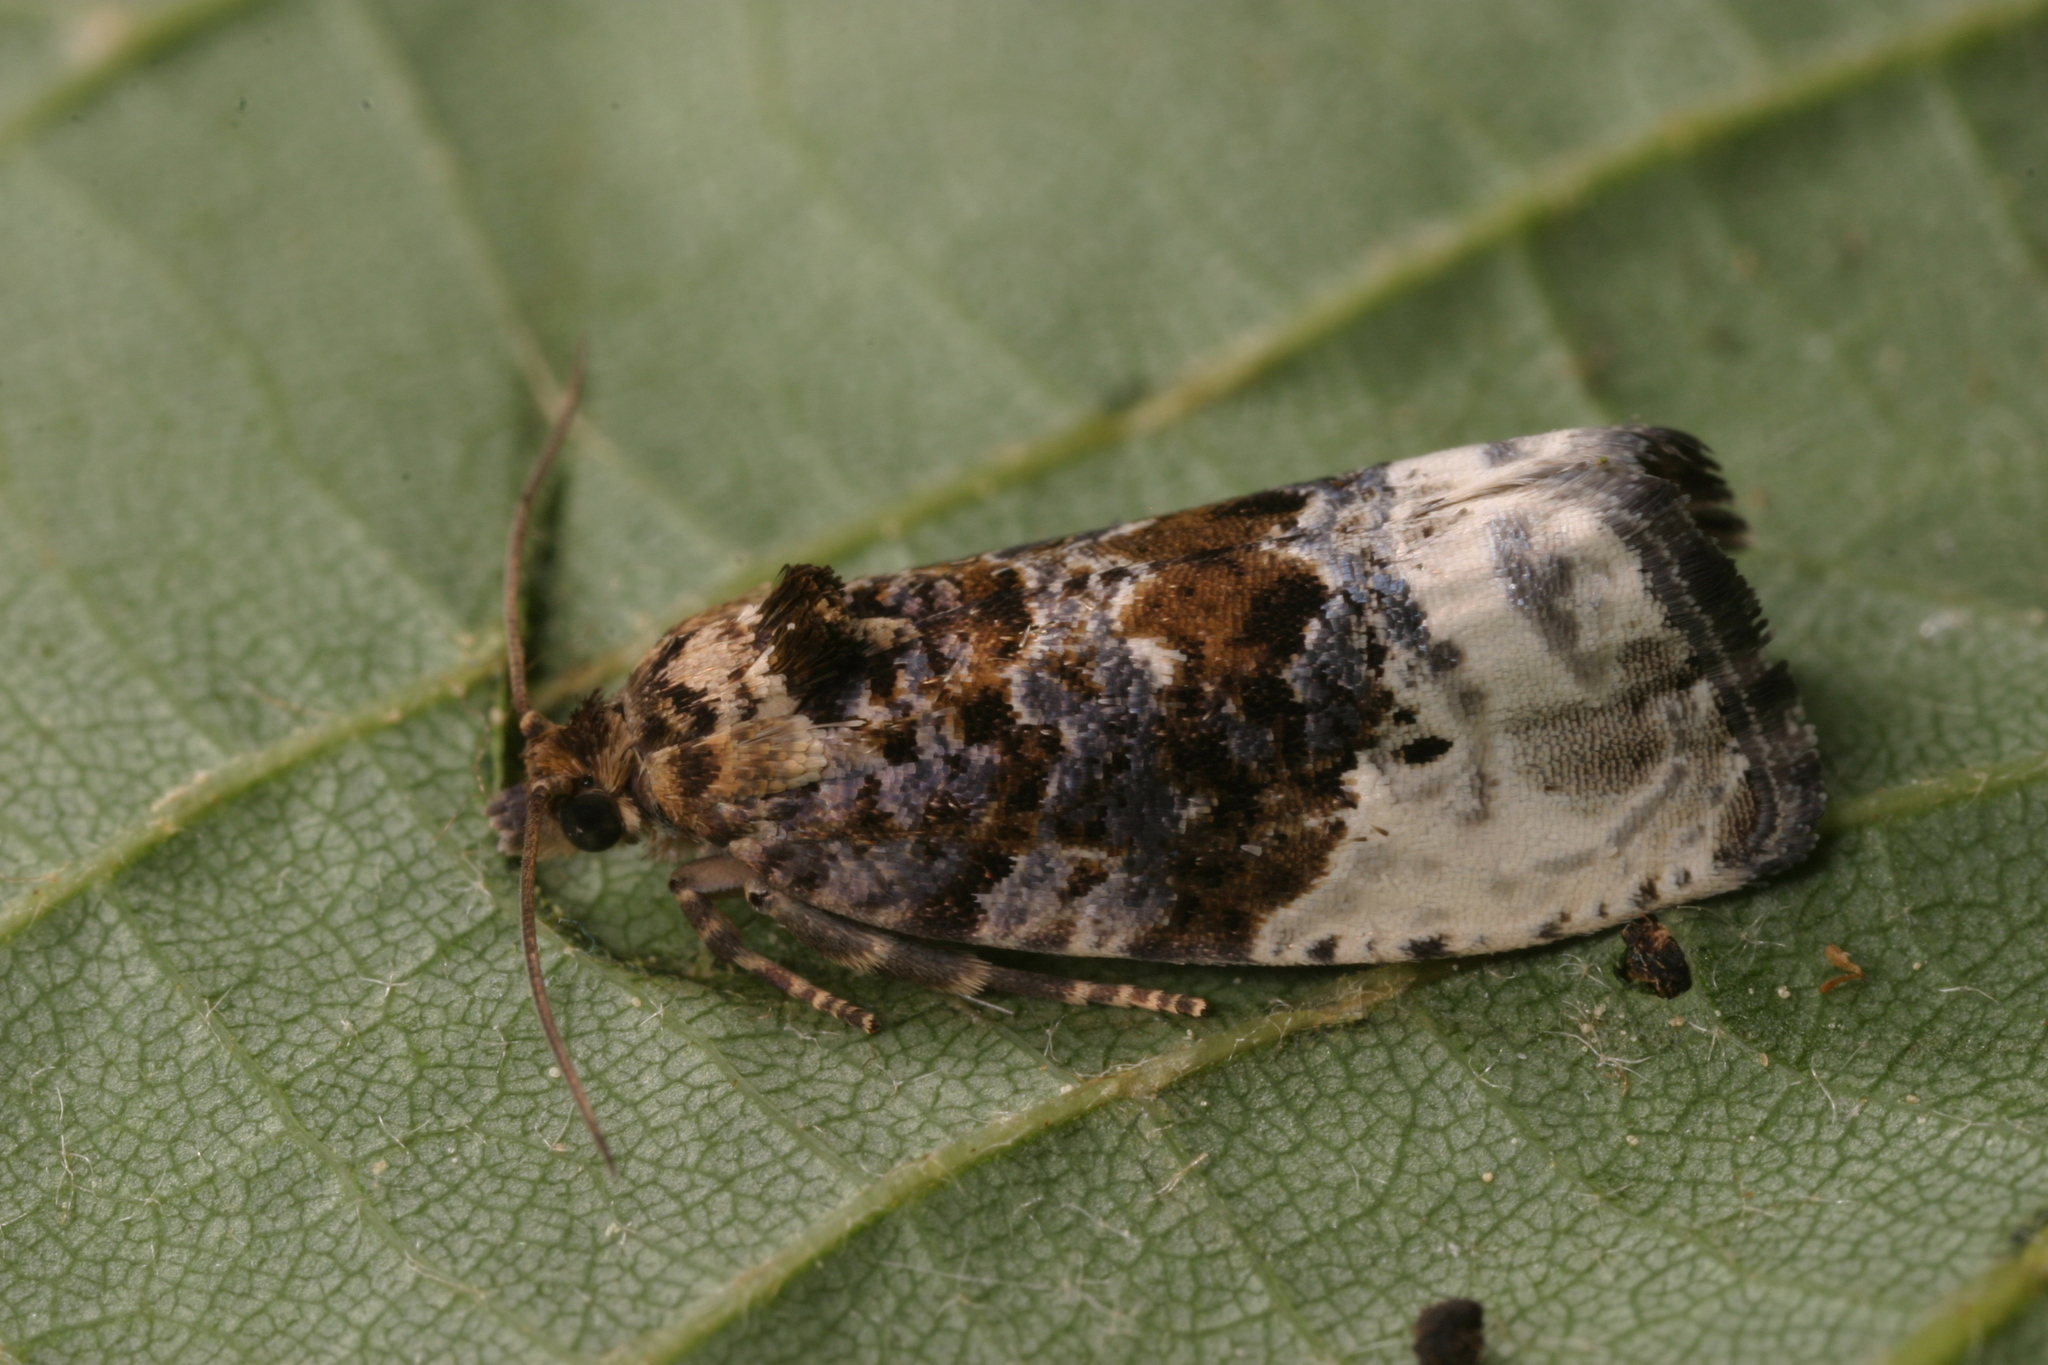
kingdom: Animalia
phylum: Arthropoda
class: Insecta
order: Lepidoptera
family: Tortricidae
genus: Hedya
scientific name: Hedya nubiferana
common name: Marbled orchard tortrix
